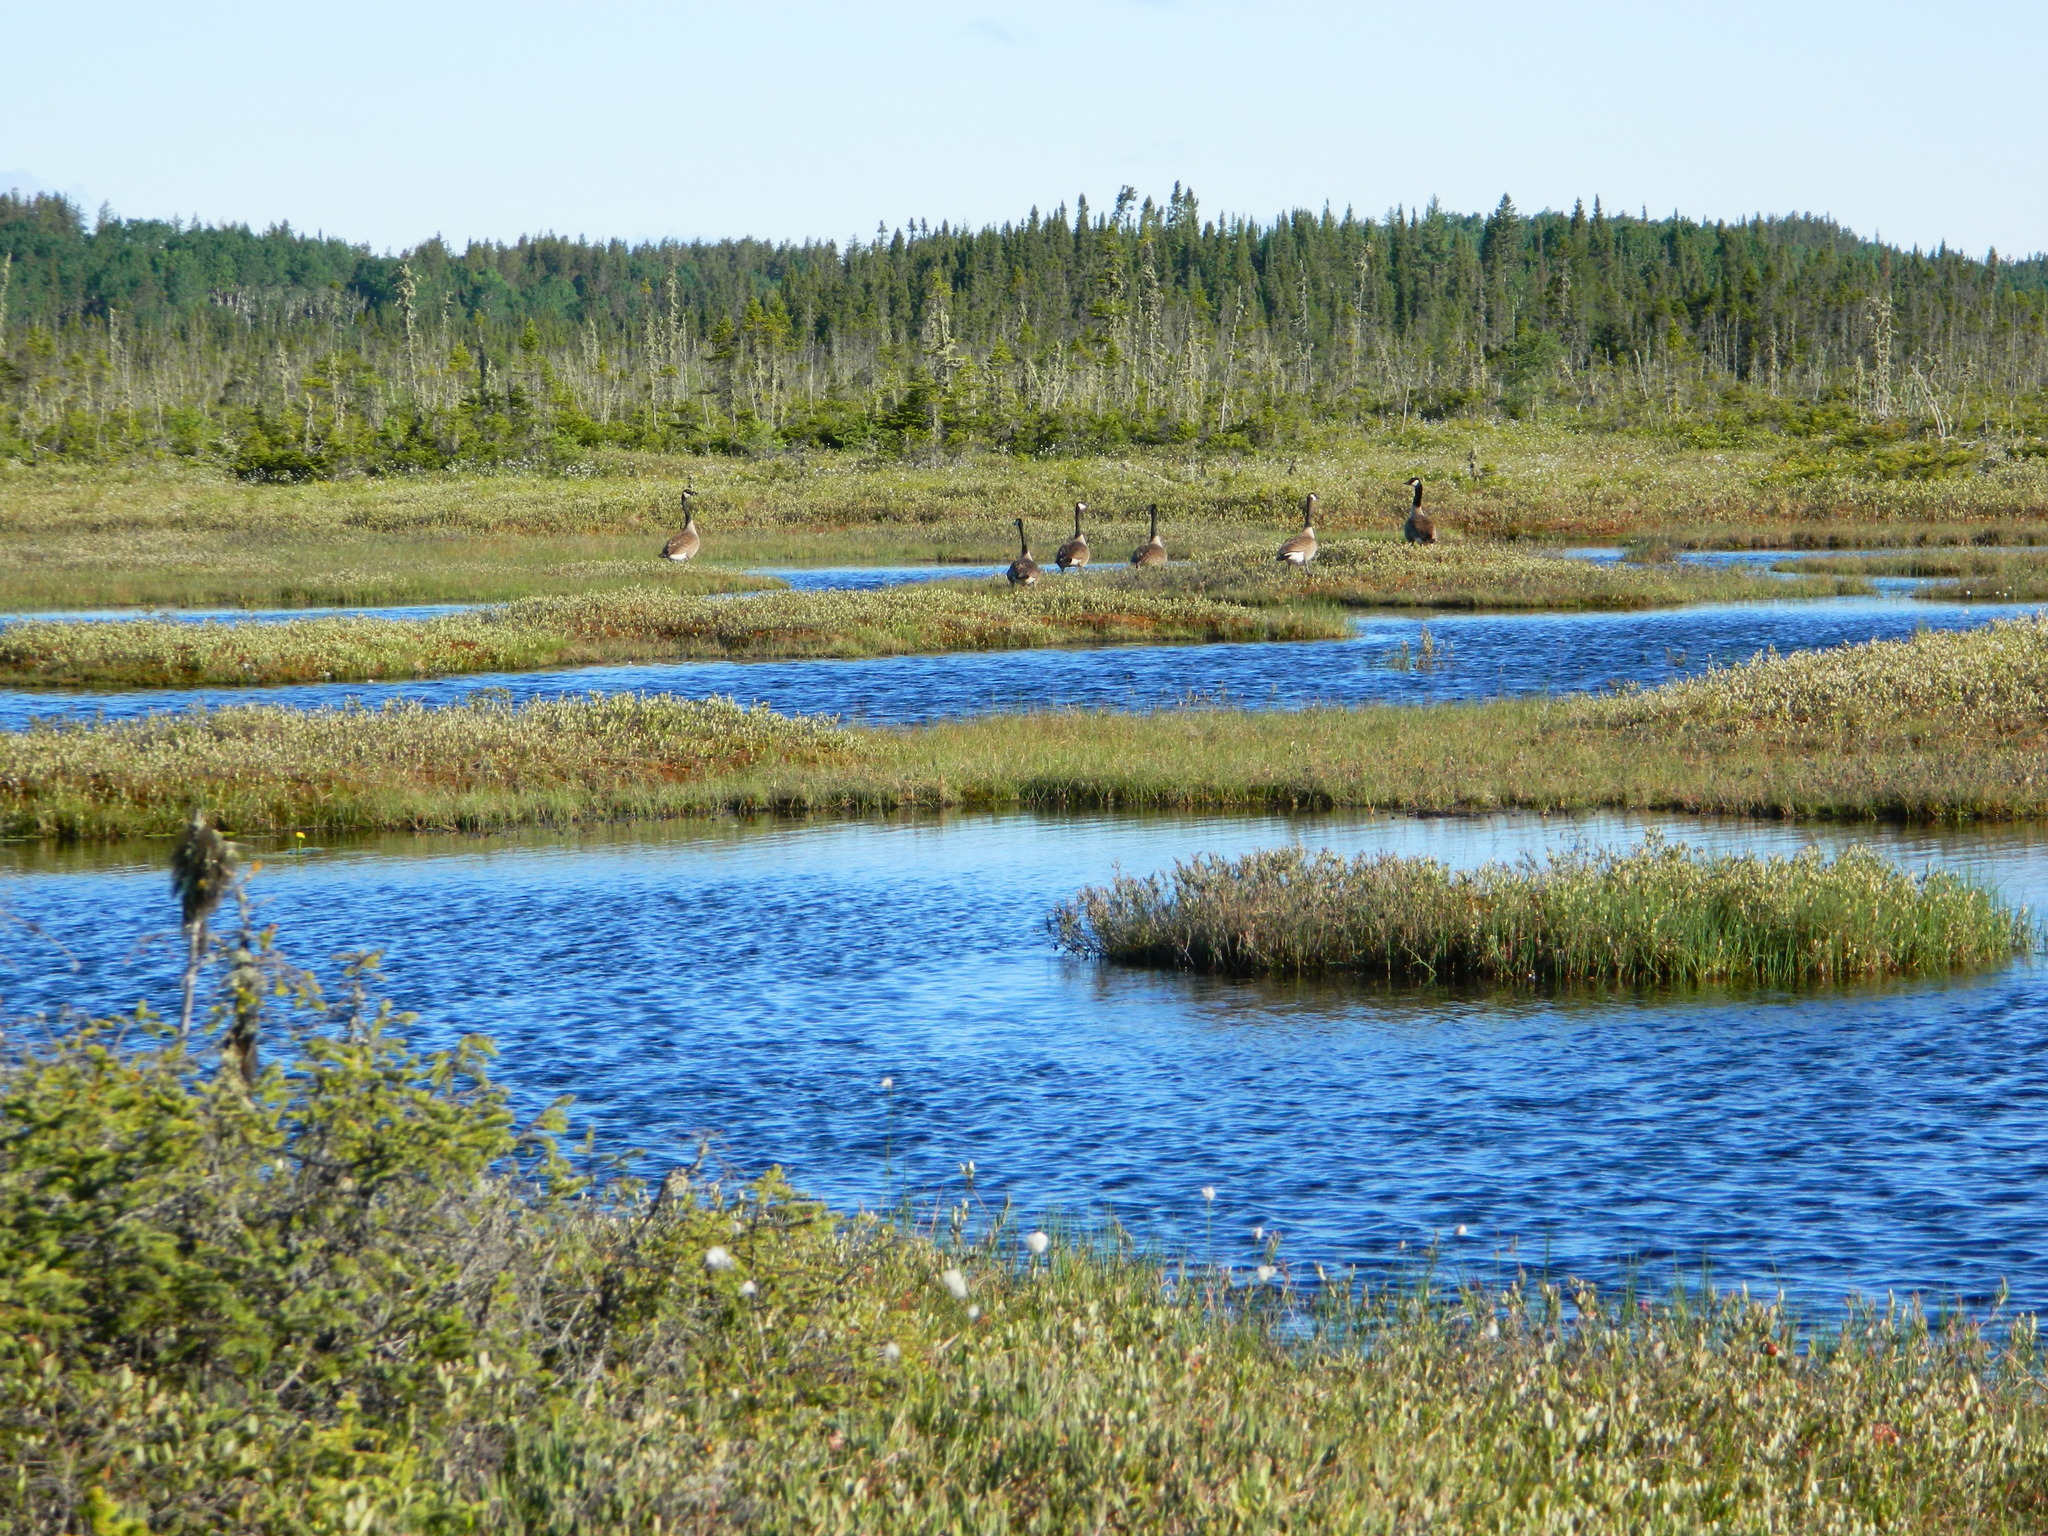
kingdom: Animalia
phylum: Chordata
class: Aves
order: Anseriformes
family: Anatidae
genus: Branta
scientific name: Branta canadensis
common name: Canada goose
